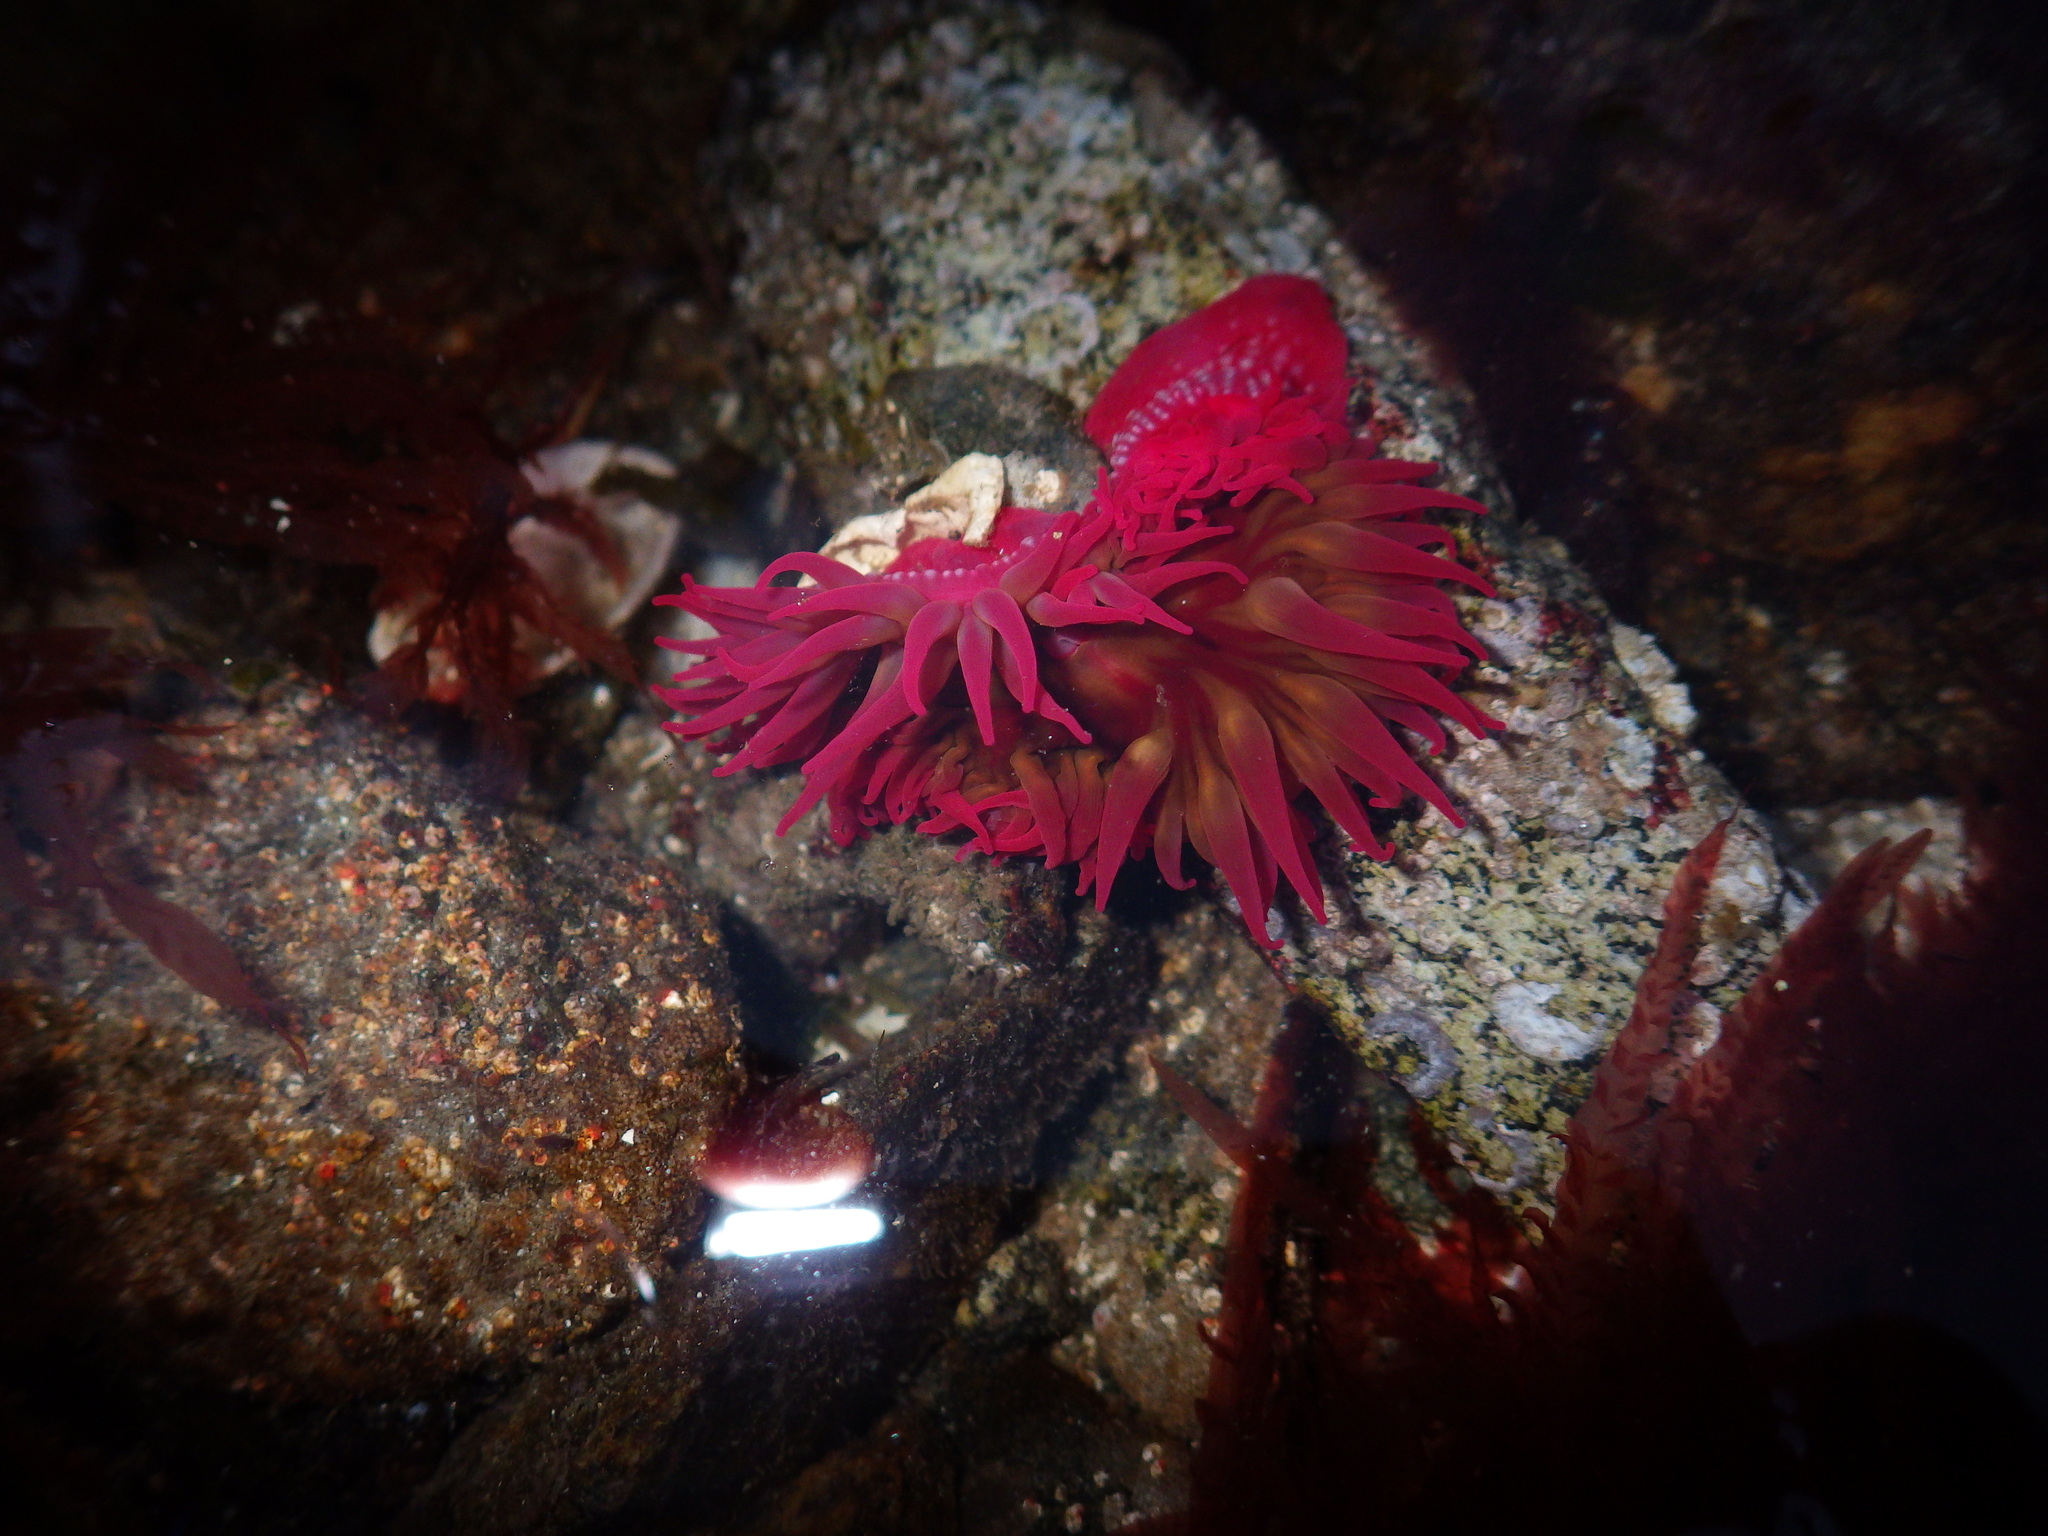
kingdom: Animalia
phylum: Cnidaria
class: Anthozoa
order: Actiniaria
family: Actiniidae
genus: Cribrinopsis
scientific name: Cribrinopsis albopunctata
